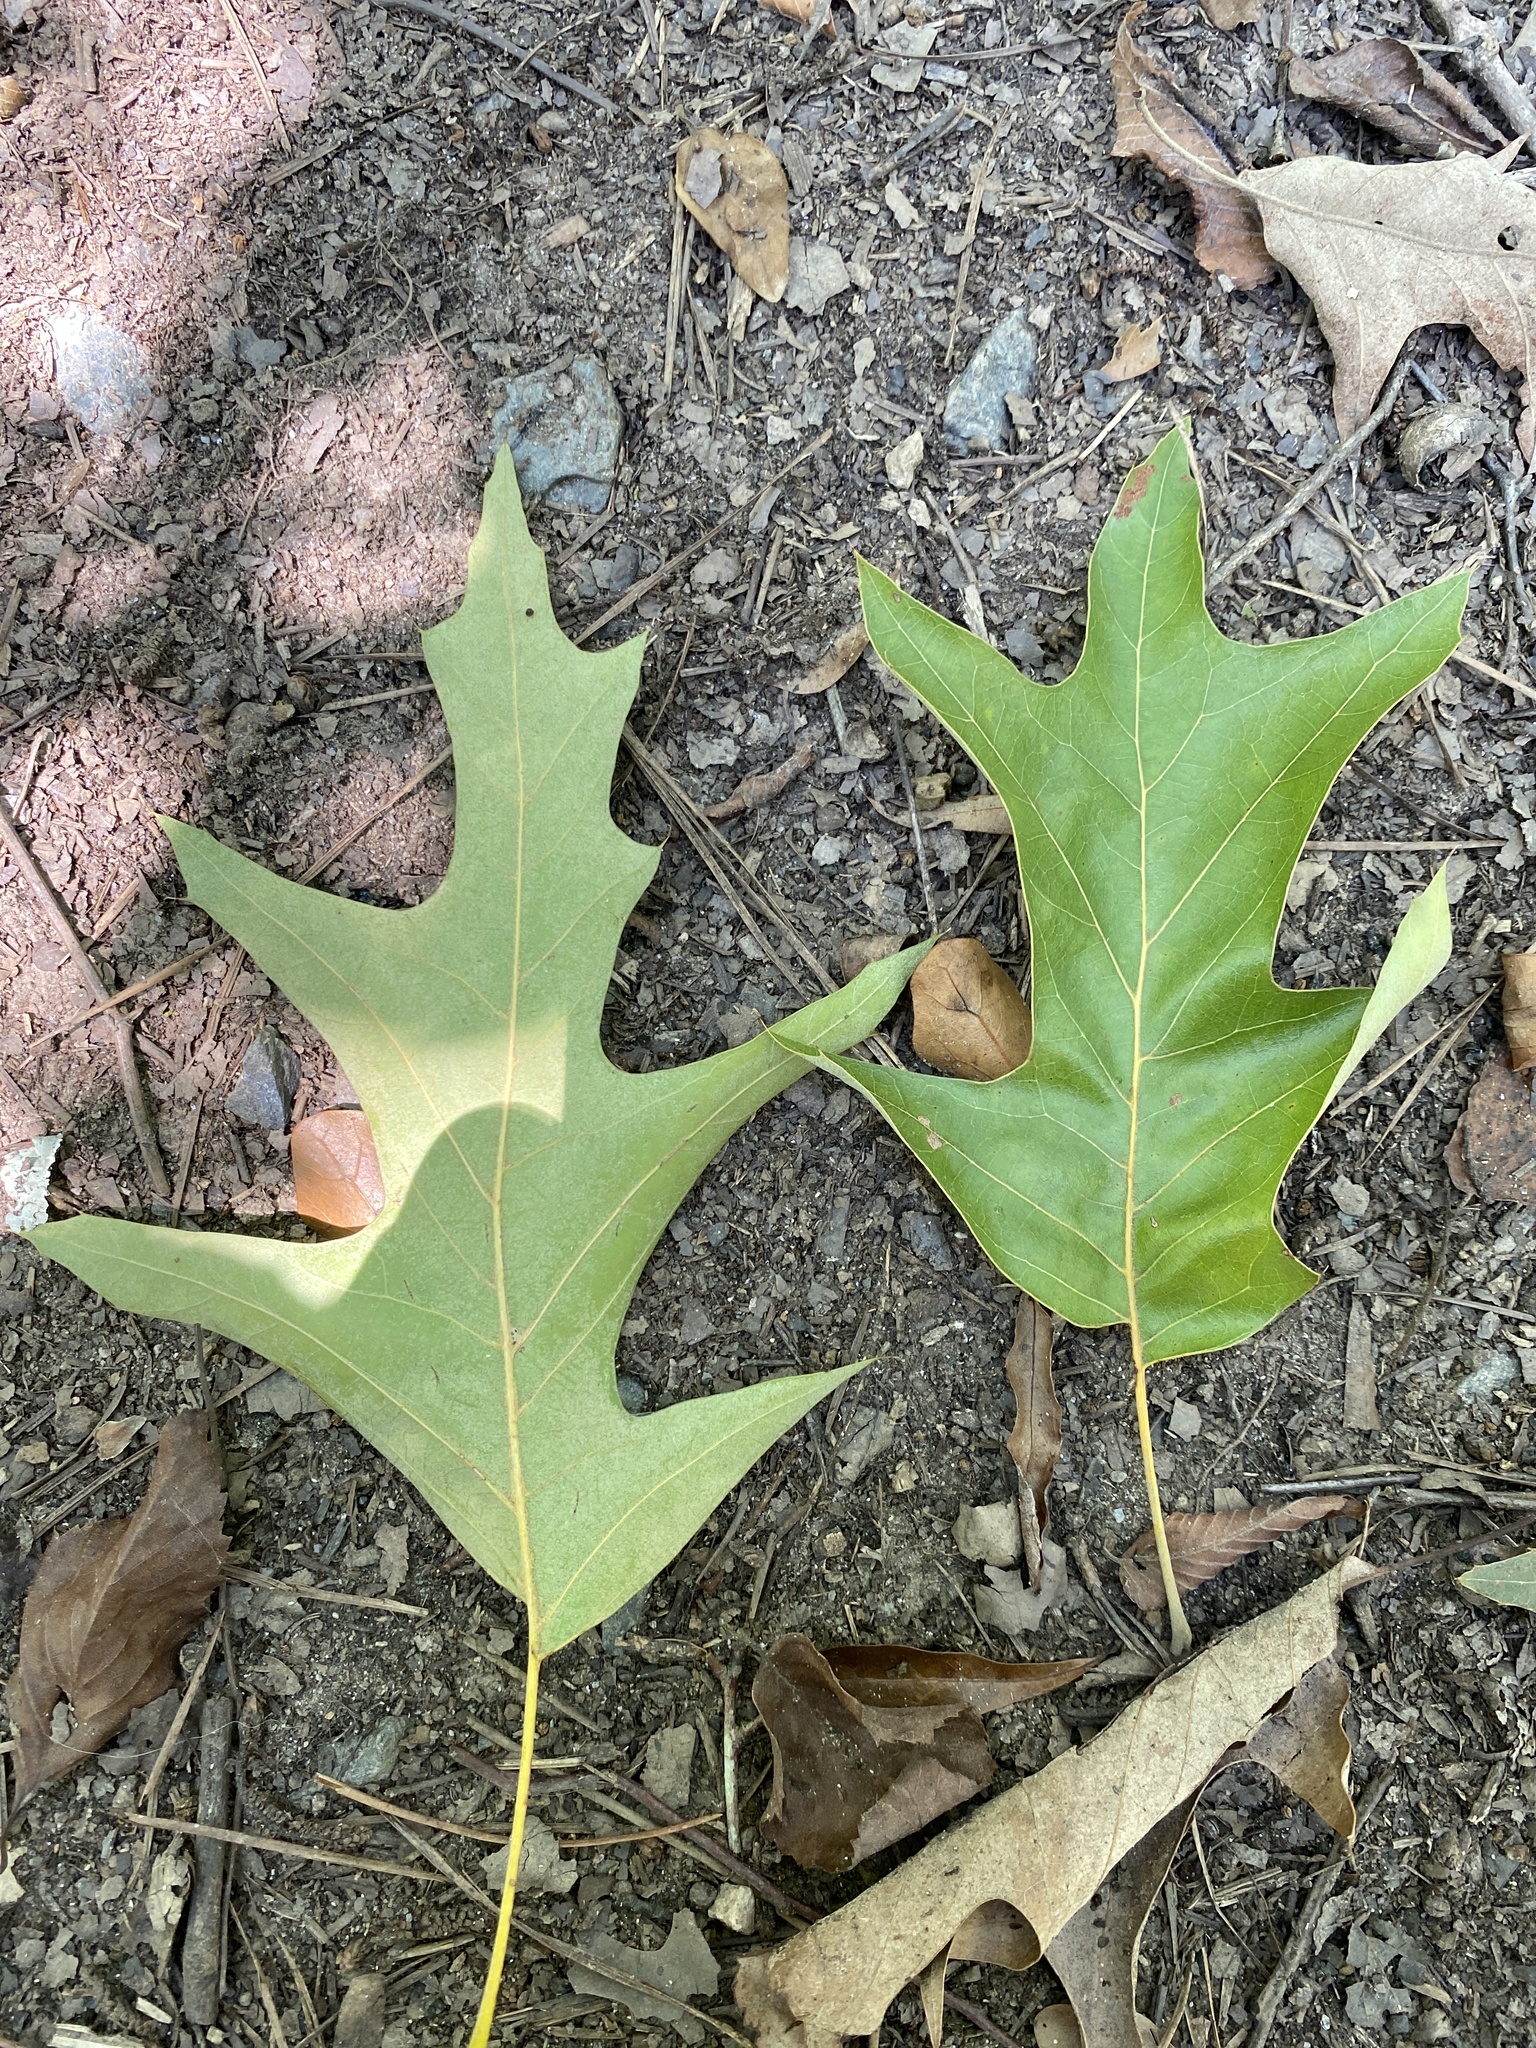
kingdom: Plantae
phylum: Tracheophyta
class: Magnoliopsida
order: Fagales
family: Fagaceae
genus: Quercus
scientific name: Quercus pagoda
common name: Cherrybark oak
